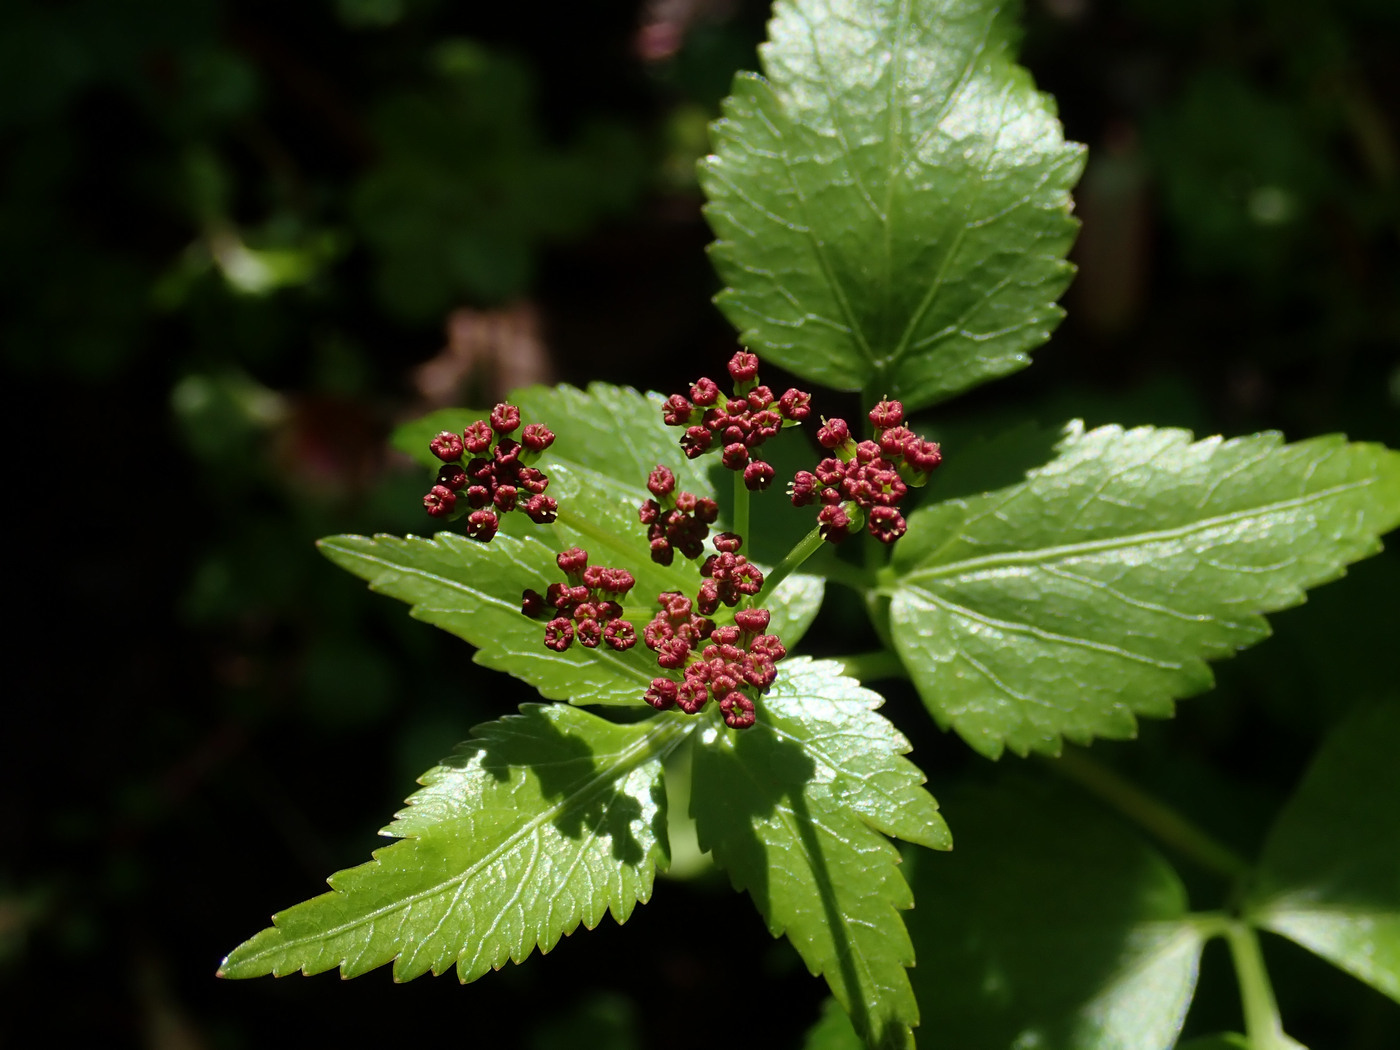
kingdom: Plantae
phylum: Tracheophyta
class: Magnoliopsida
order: Apiales
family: Apiaceae
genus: Thaspium
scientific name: Thaspium trifoliatum
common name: Purple meadow-parsnip
